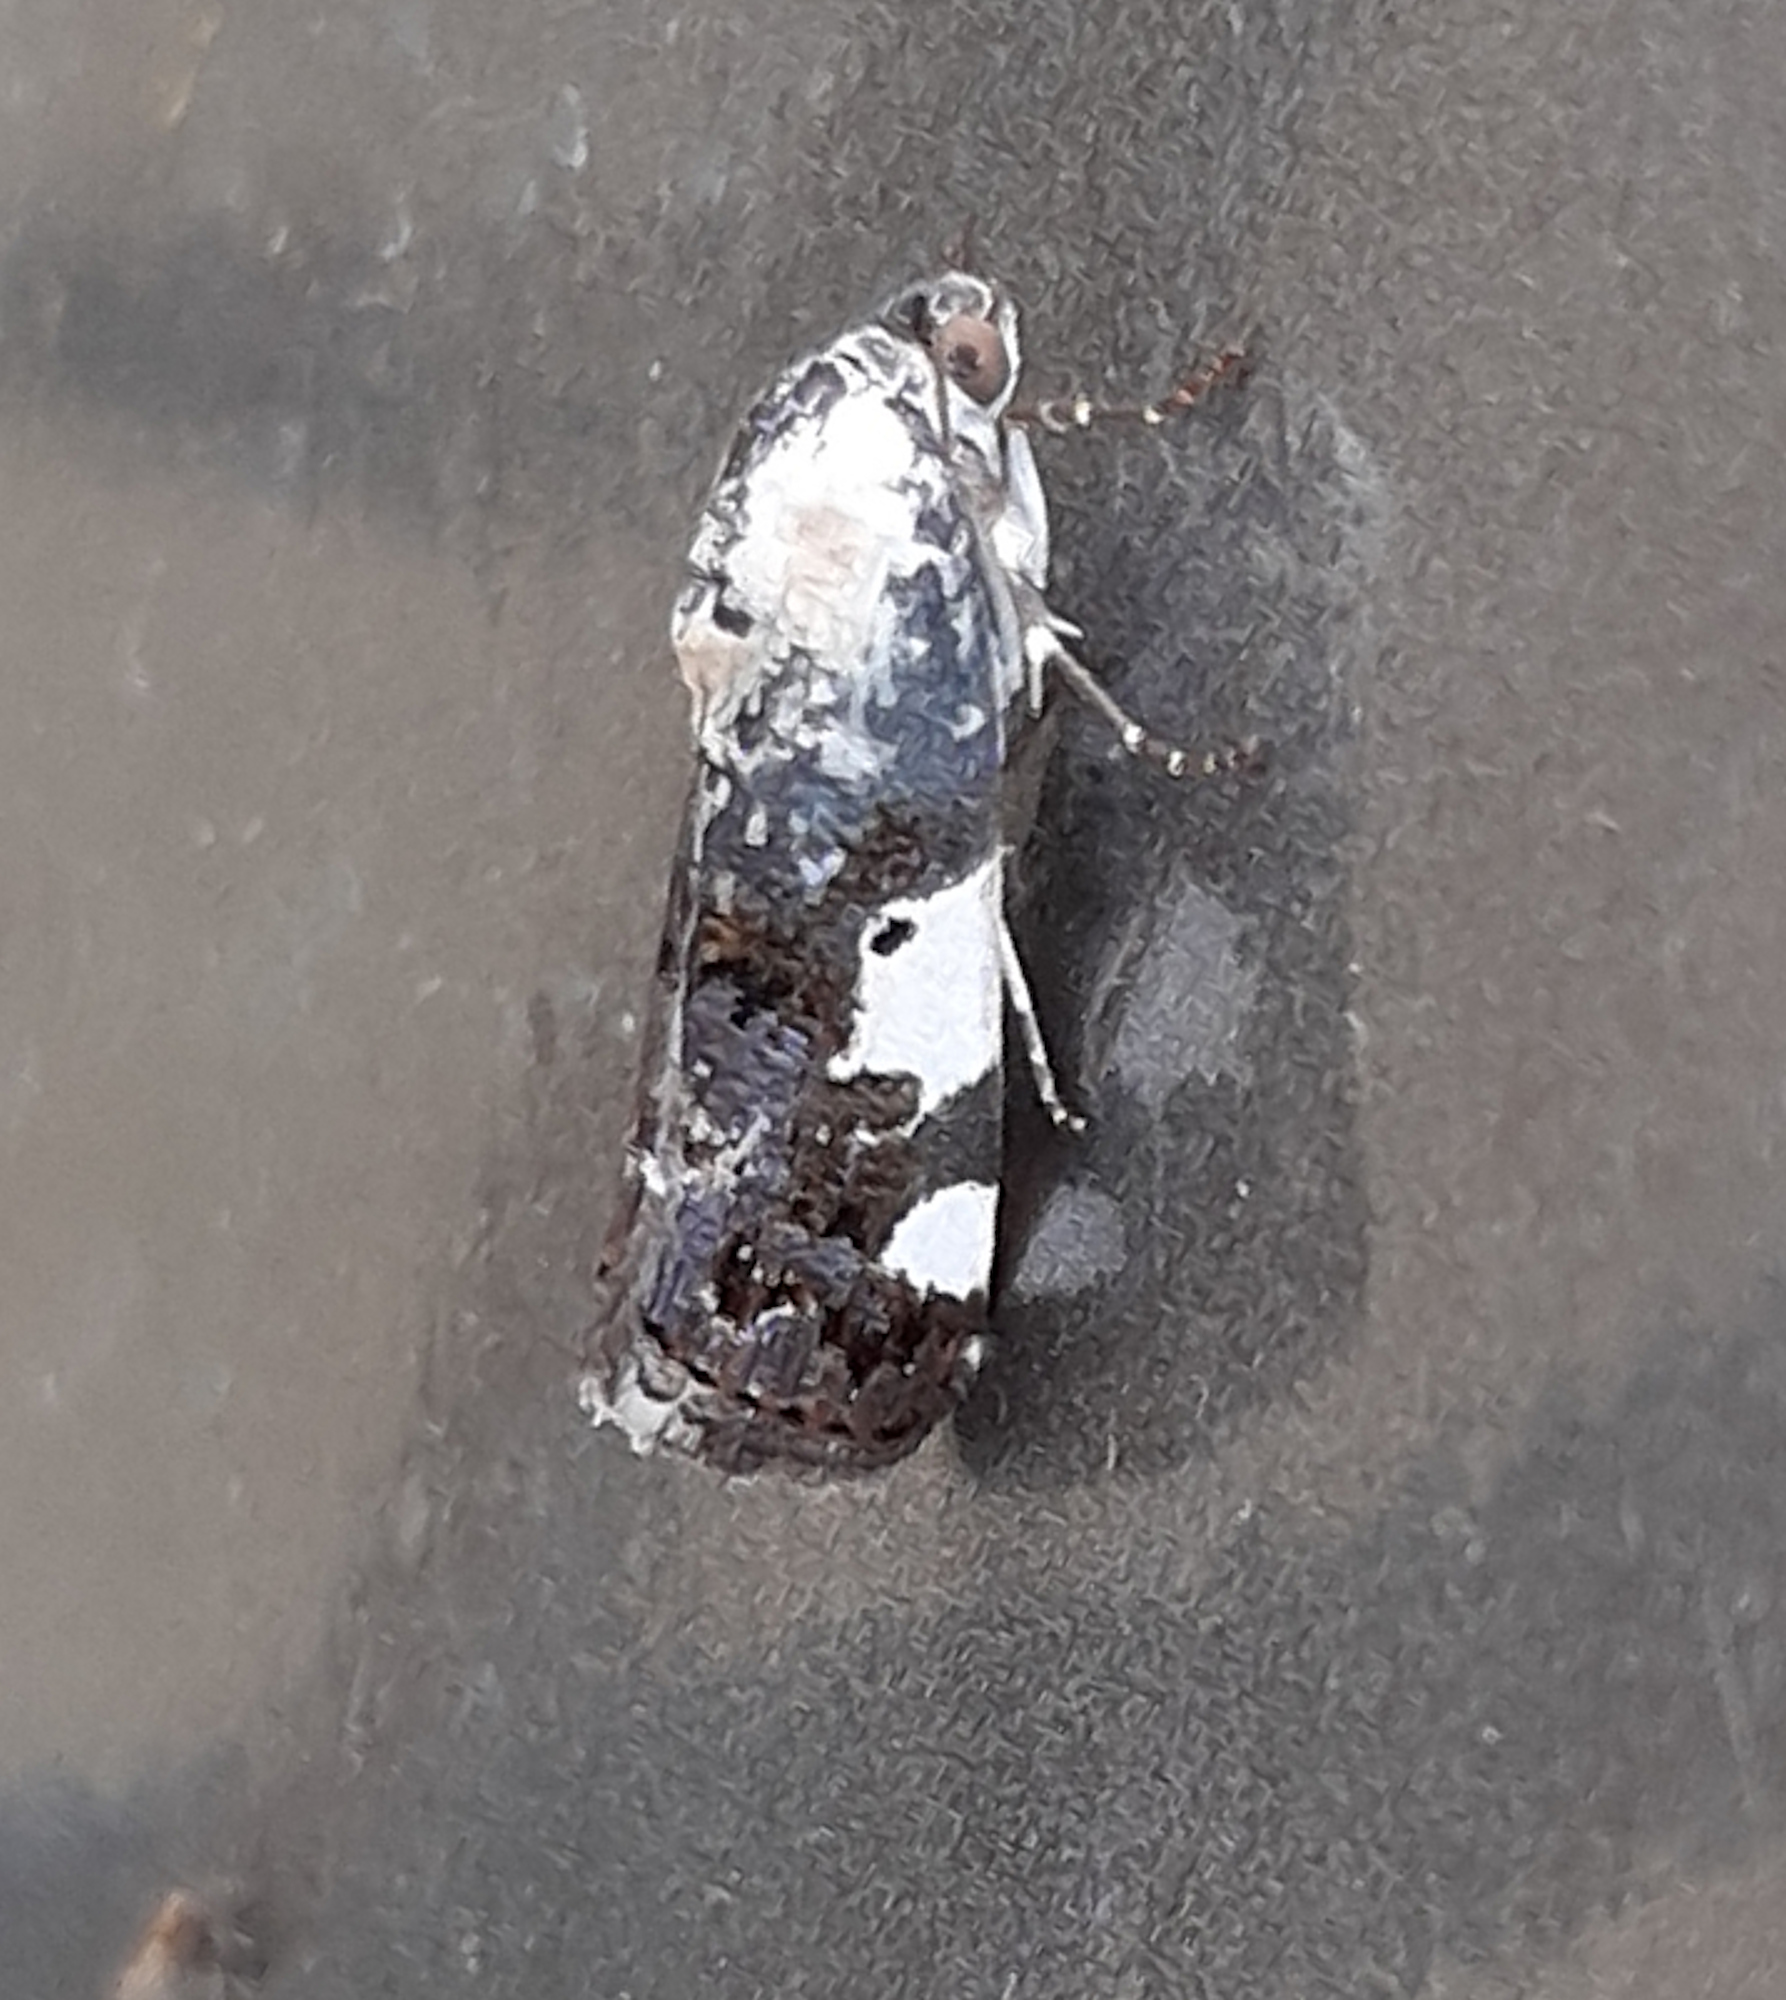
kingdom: Animalia
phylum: Arthropoda
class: Insecta
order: Lepidoptera
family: Noctuidae
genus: Acontia
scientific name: Acontia aprica
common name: Nun
